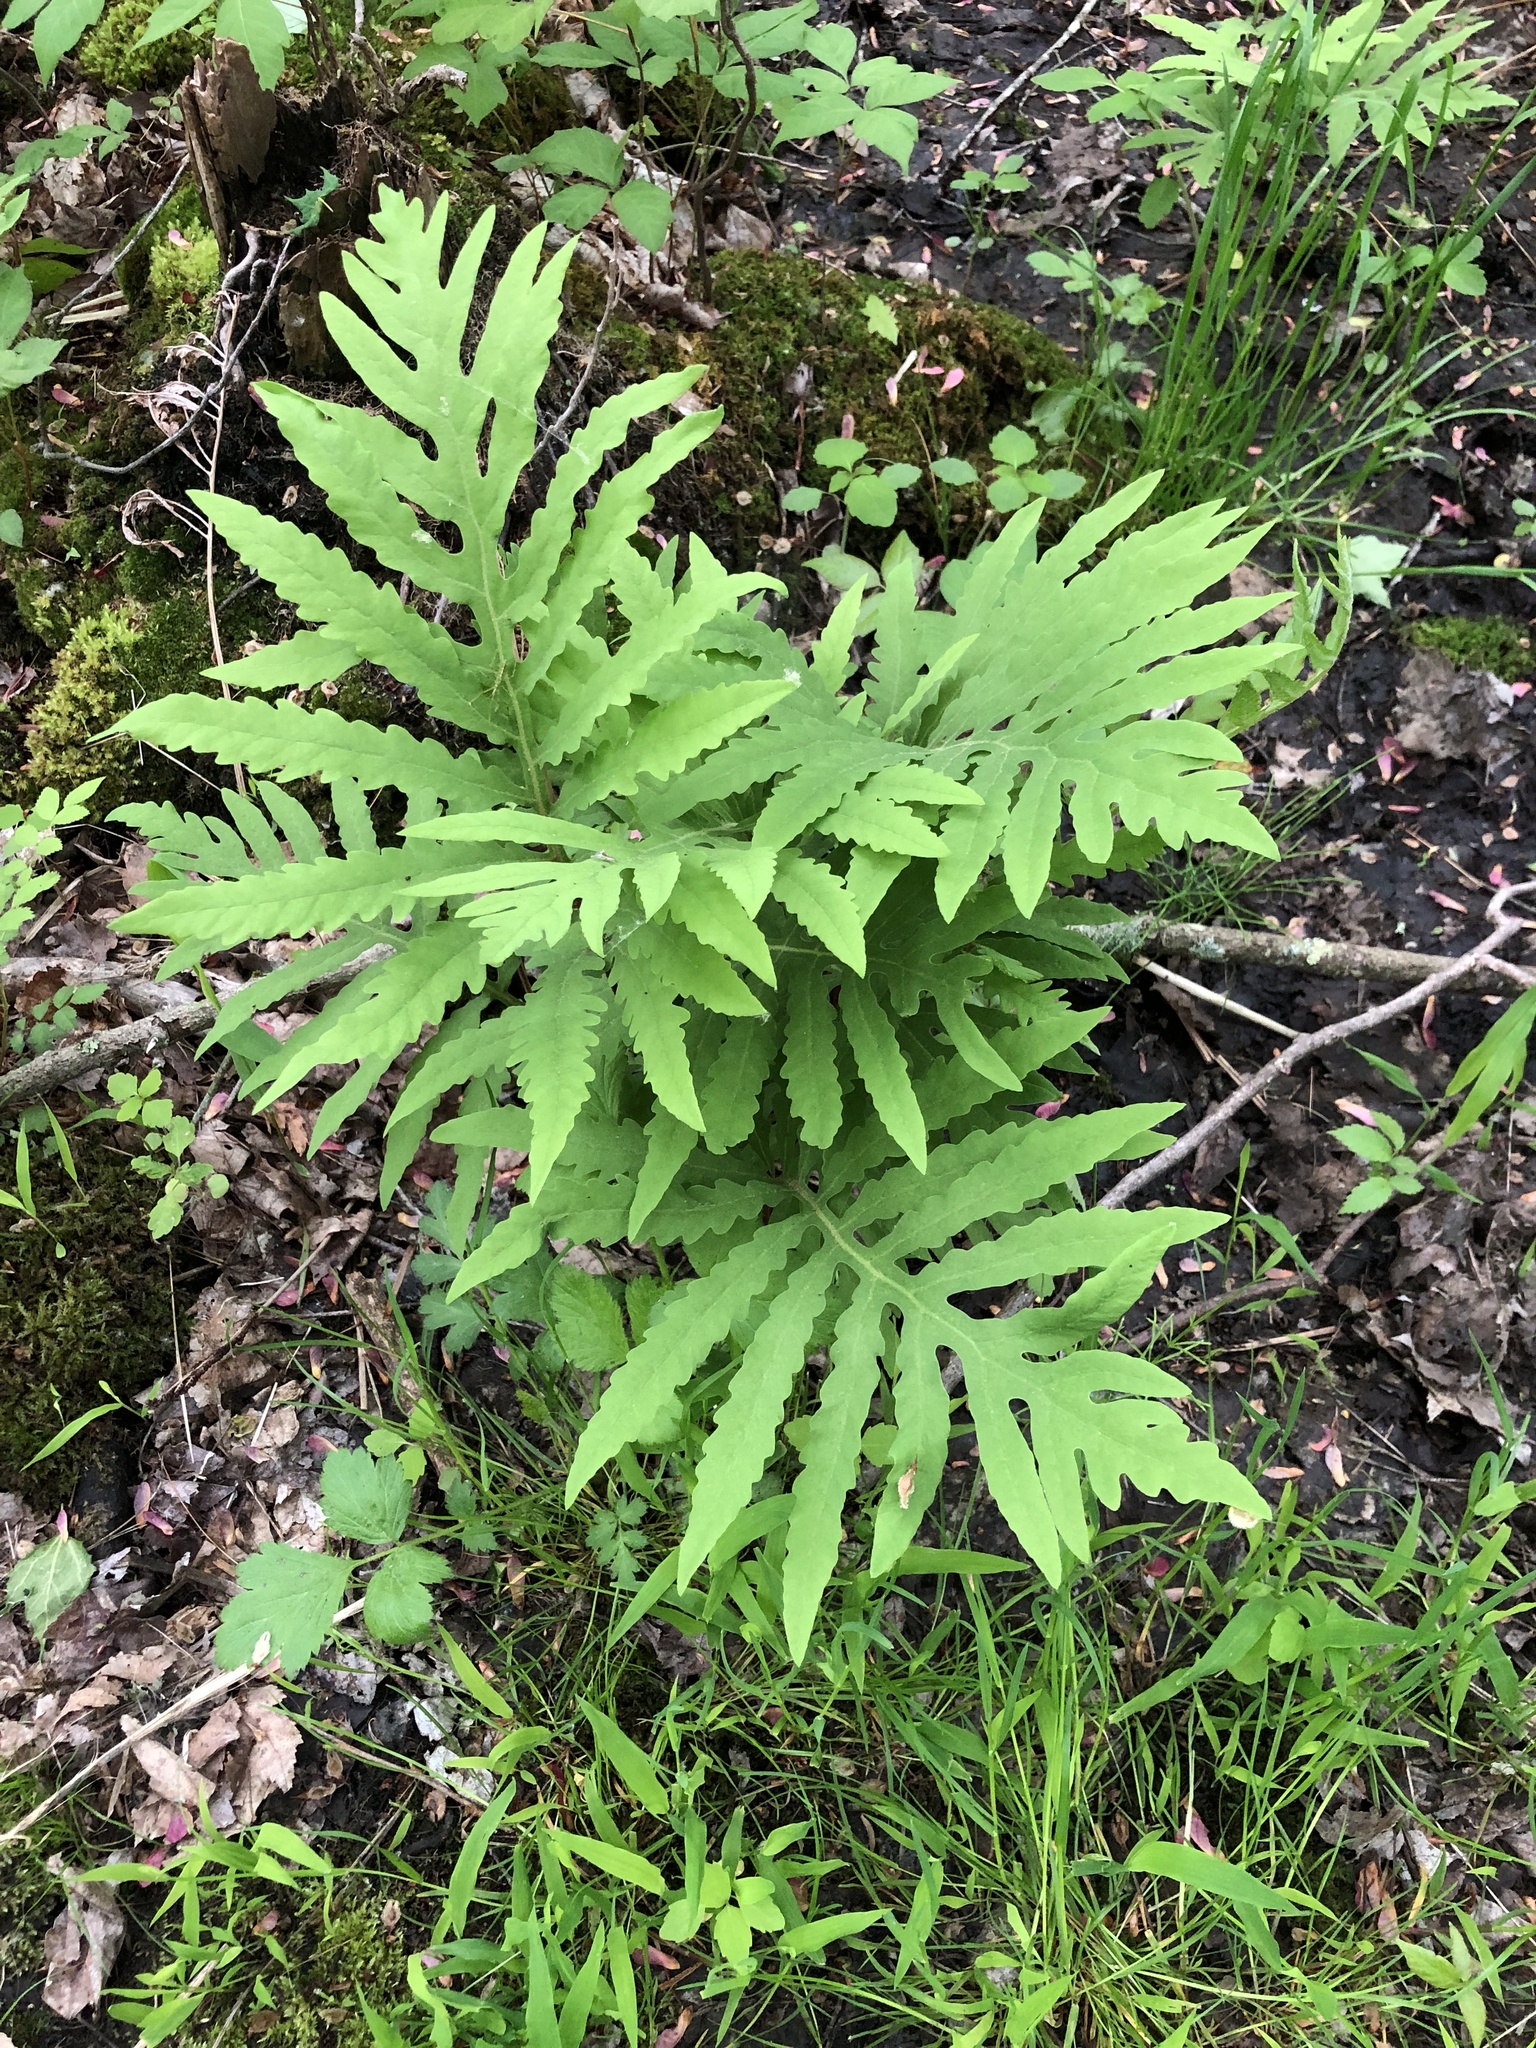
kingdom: Plantae
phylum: Tracheophyta
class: Polypodiopsida
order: Polypodiales
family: Onocleaceae
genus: Onoclea
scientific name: Onoclea sensibilis
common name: Sensitive fern
